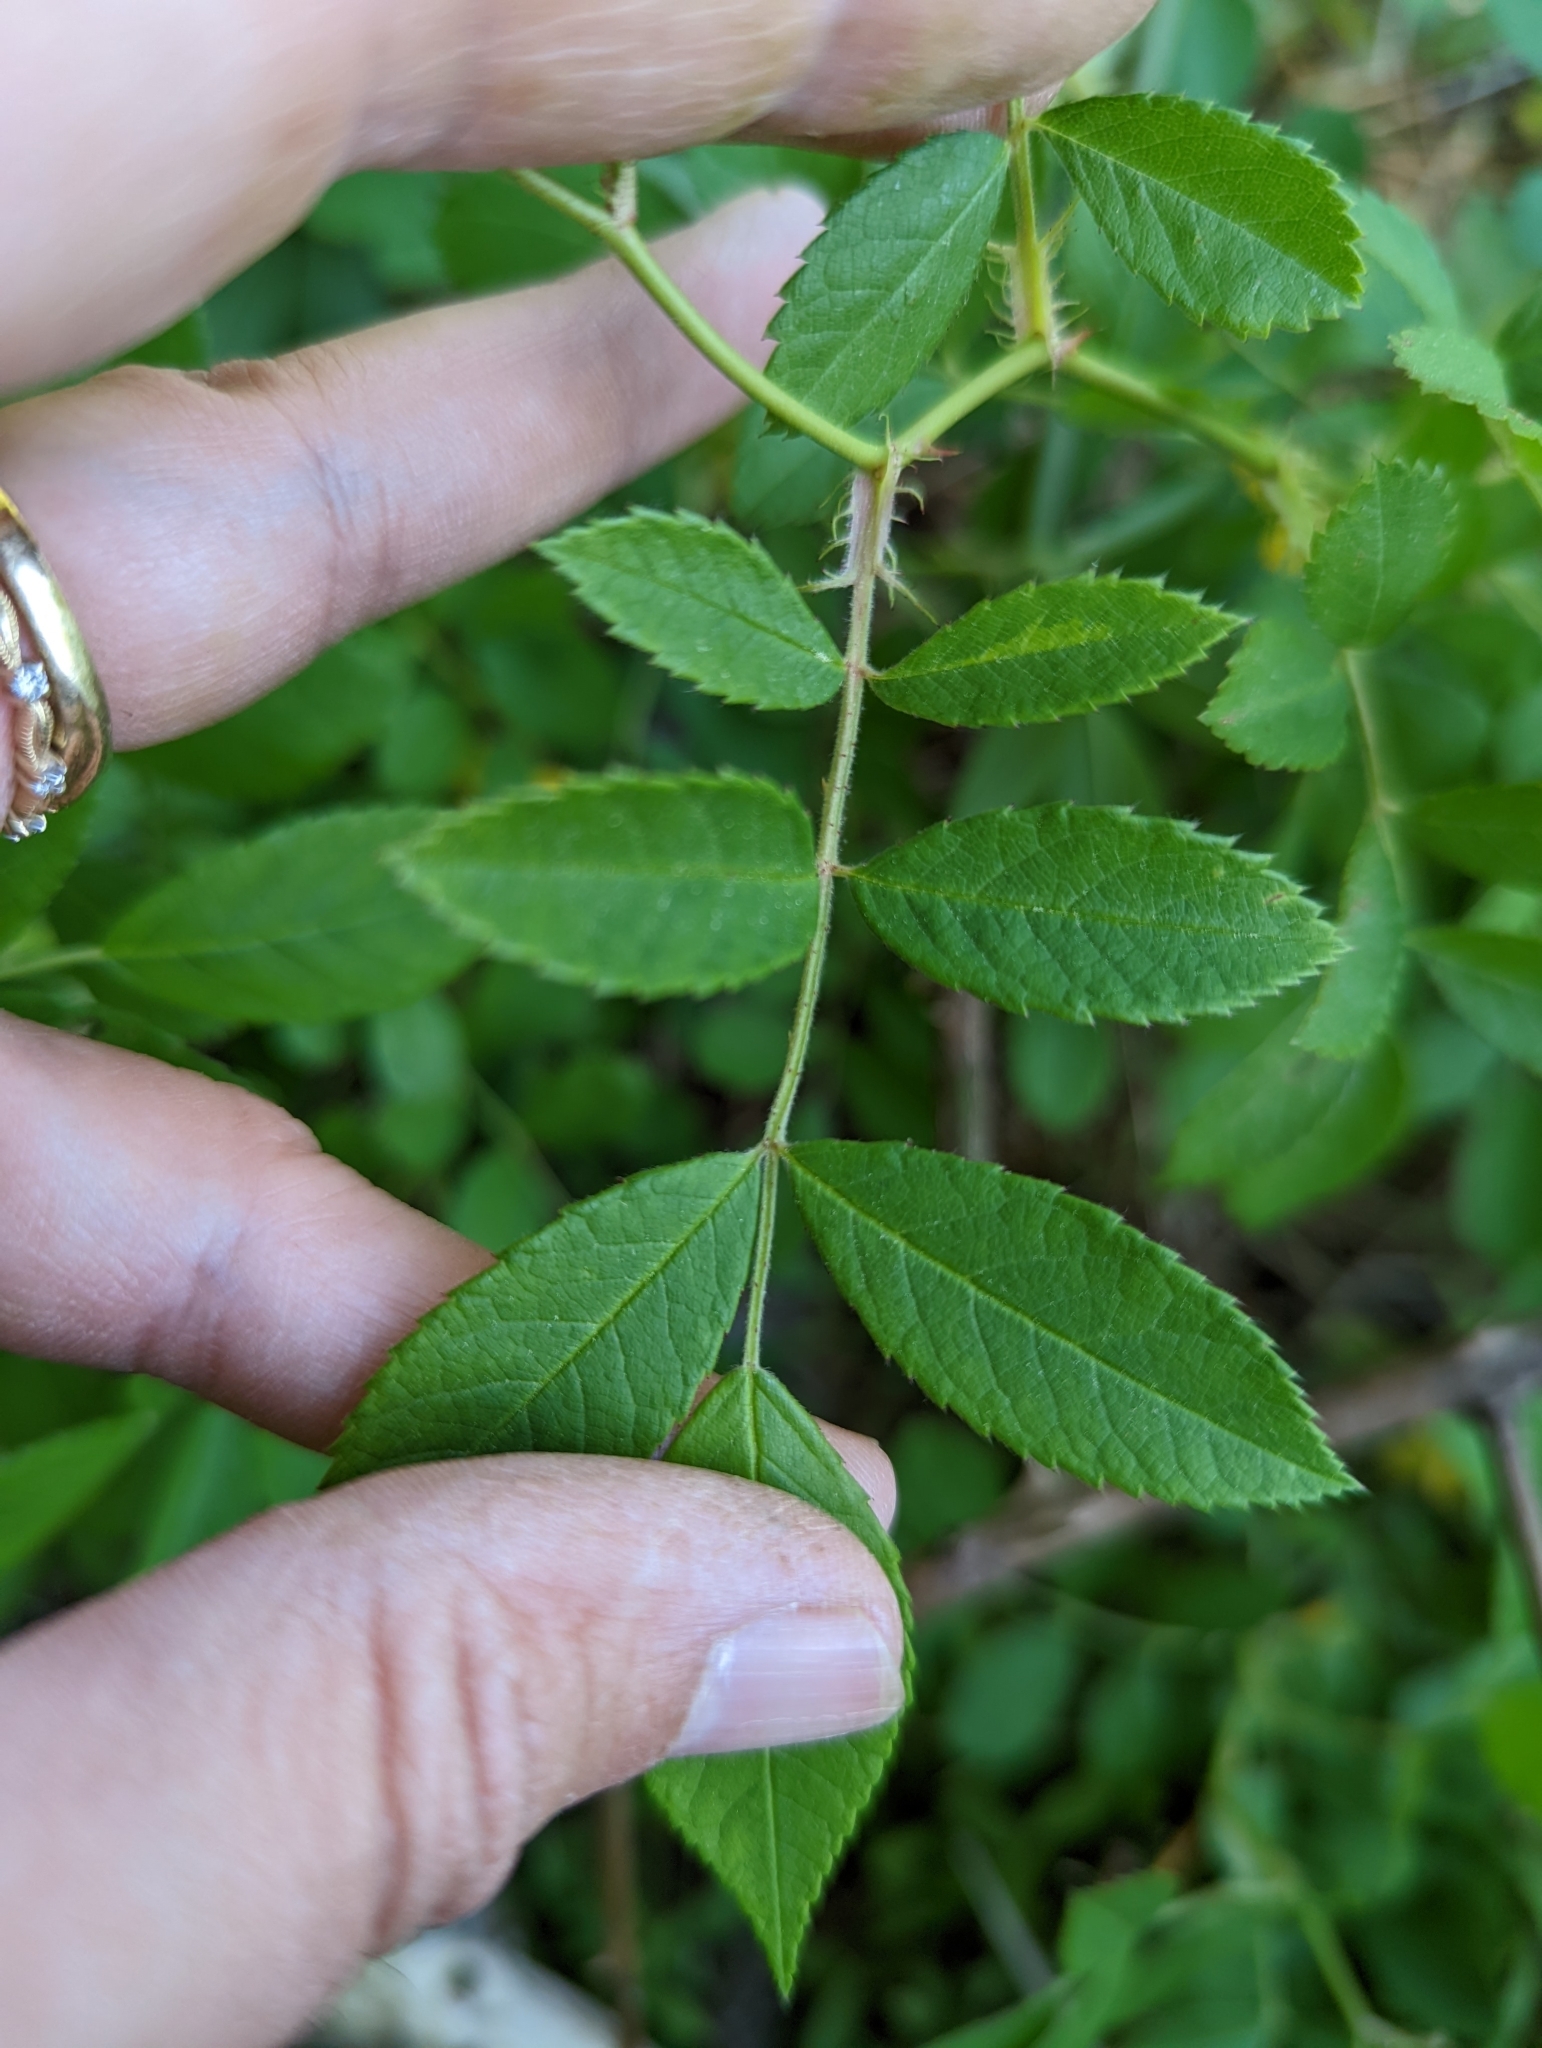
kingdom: Plantae
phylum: Tracheophyta
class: Magnoliopsida
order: Rosales
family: Rosaceae
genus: Rosa
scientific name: Rosa multiflora
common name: Multiflora rose
